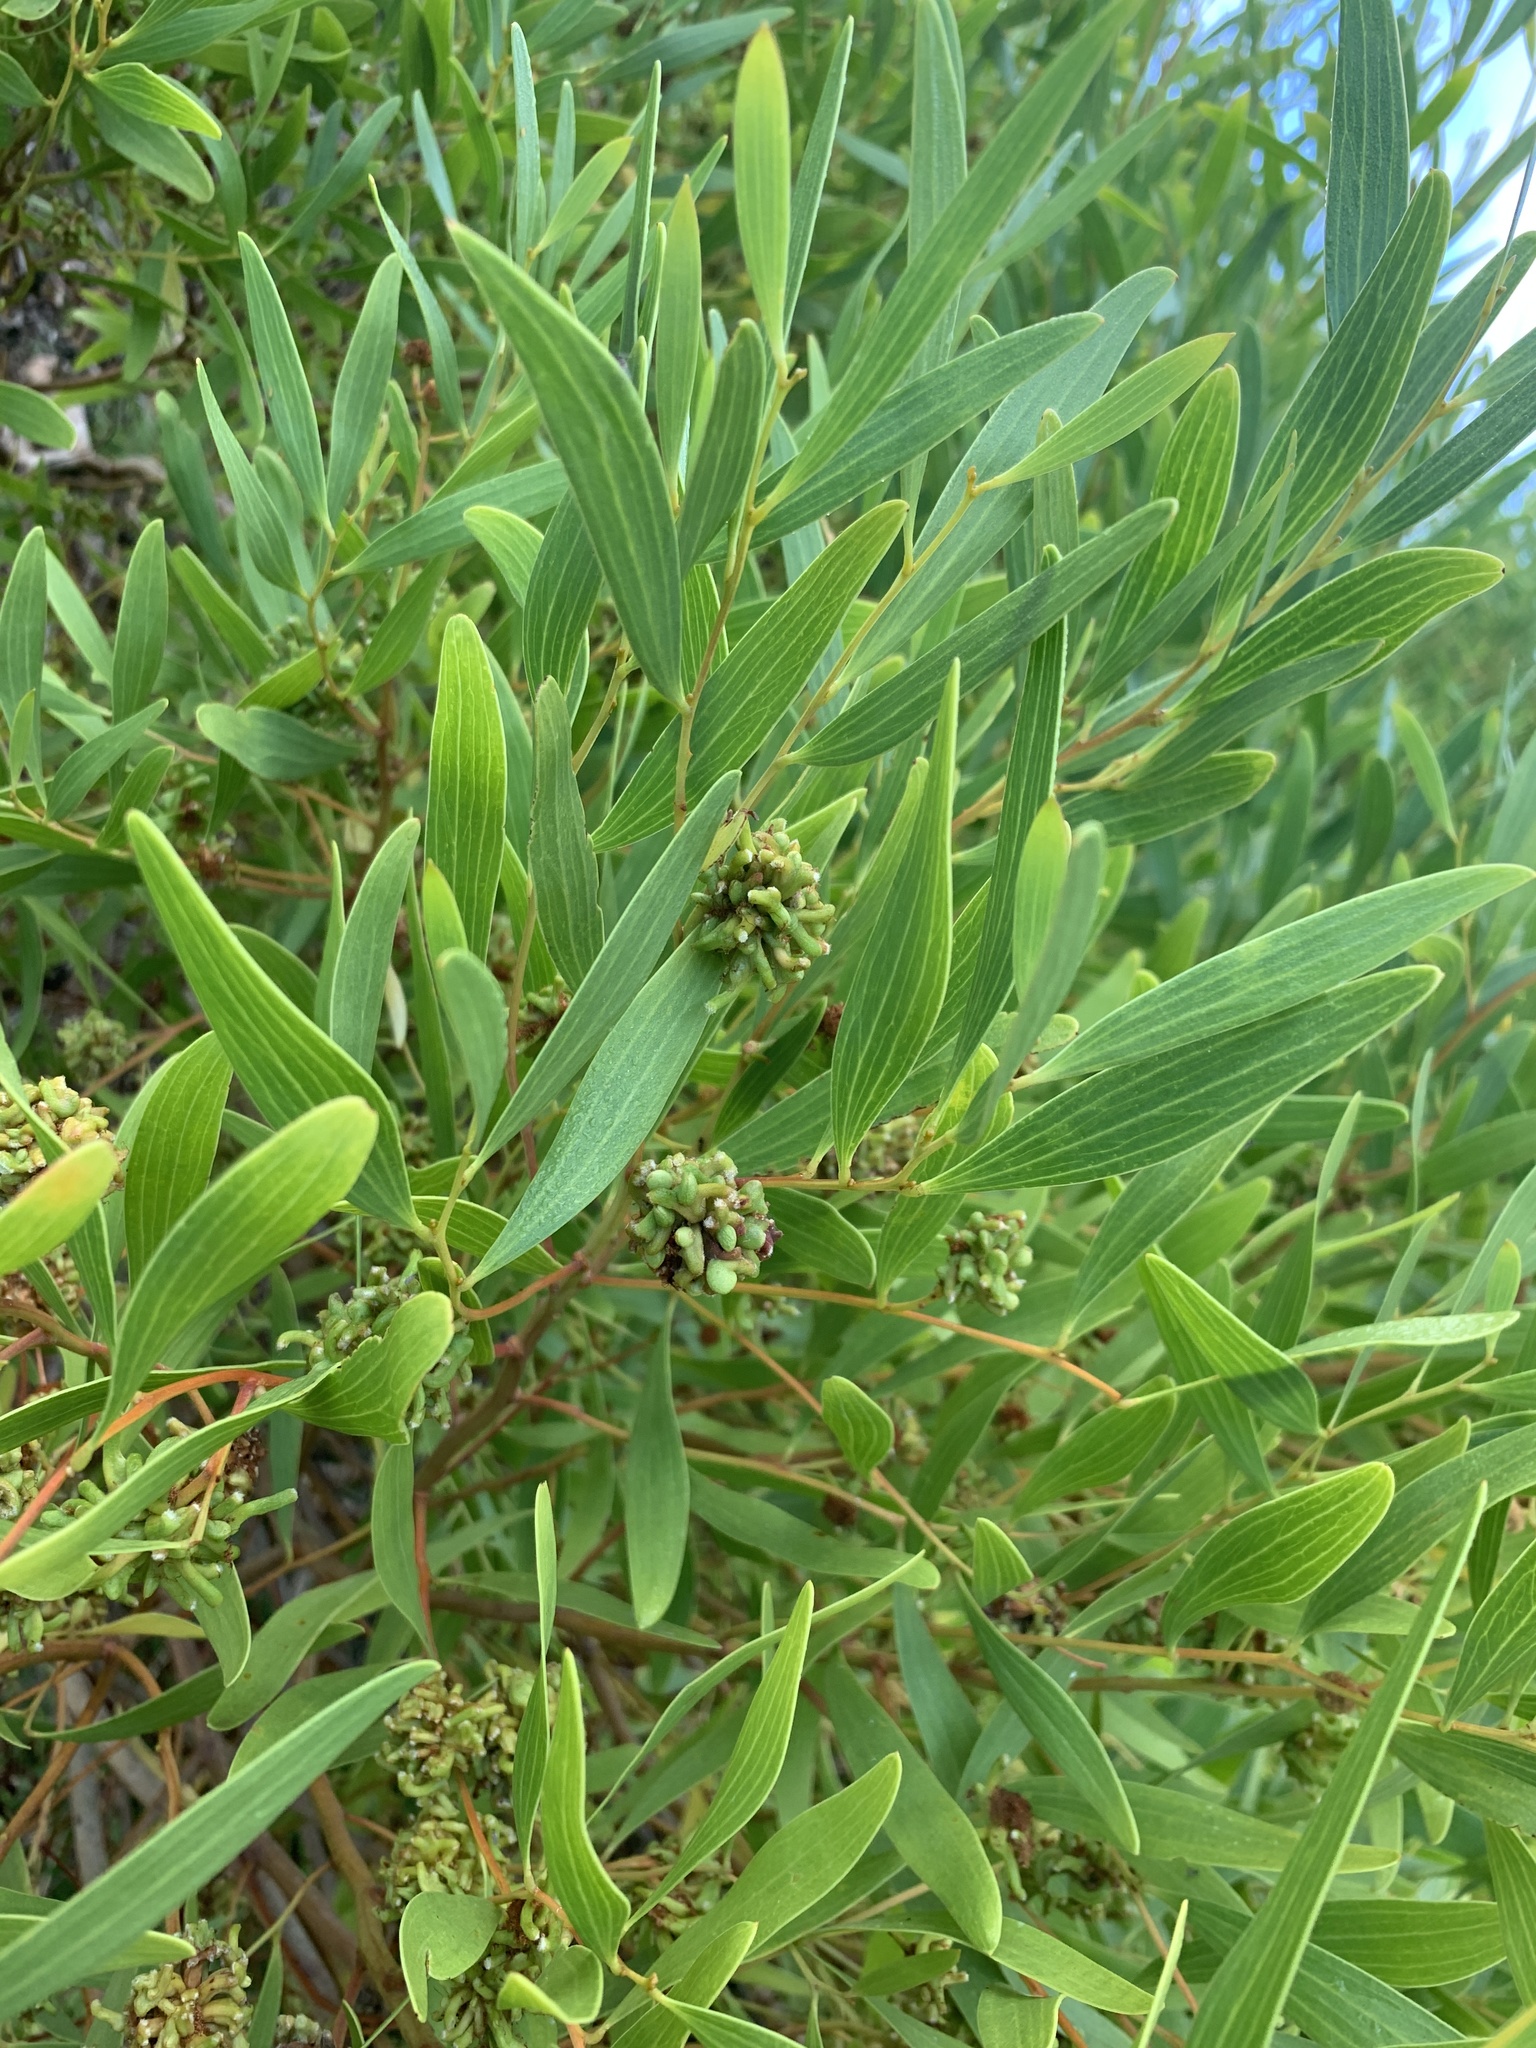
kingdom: Animalia
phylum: Arthropoda
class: Insecta
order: Diptera
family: Cecidomyiidae
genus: Dasineura
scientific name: Dasineura dielsi
